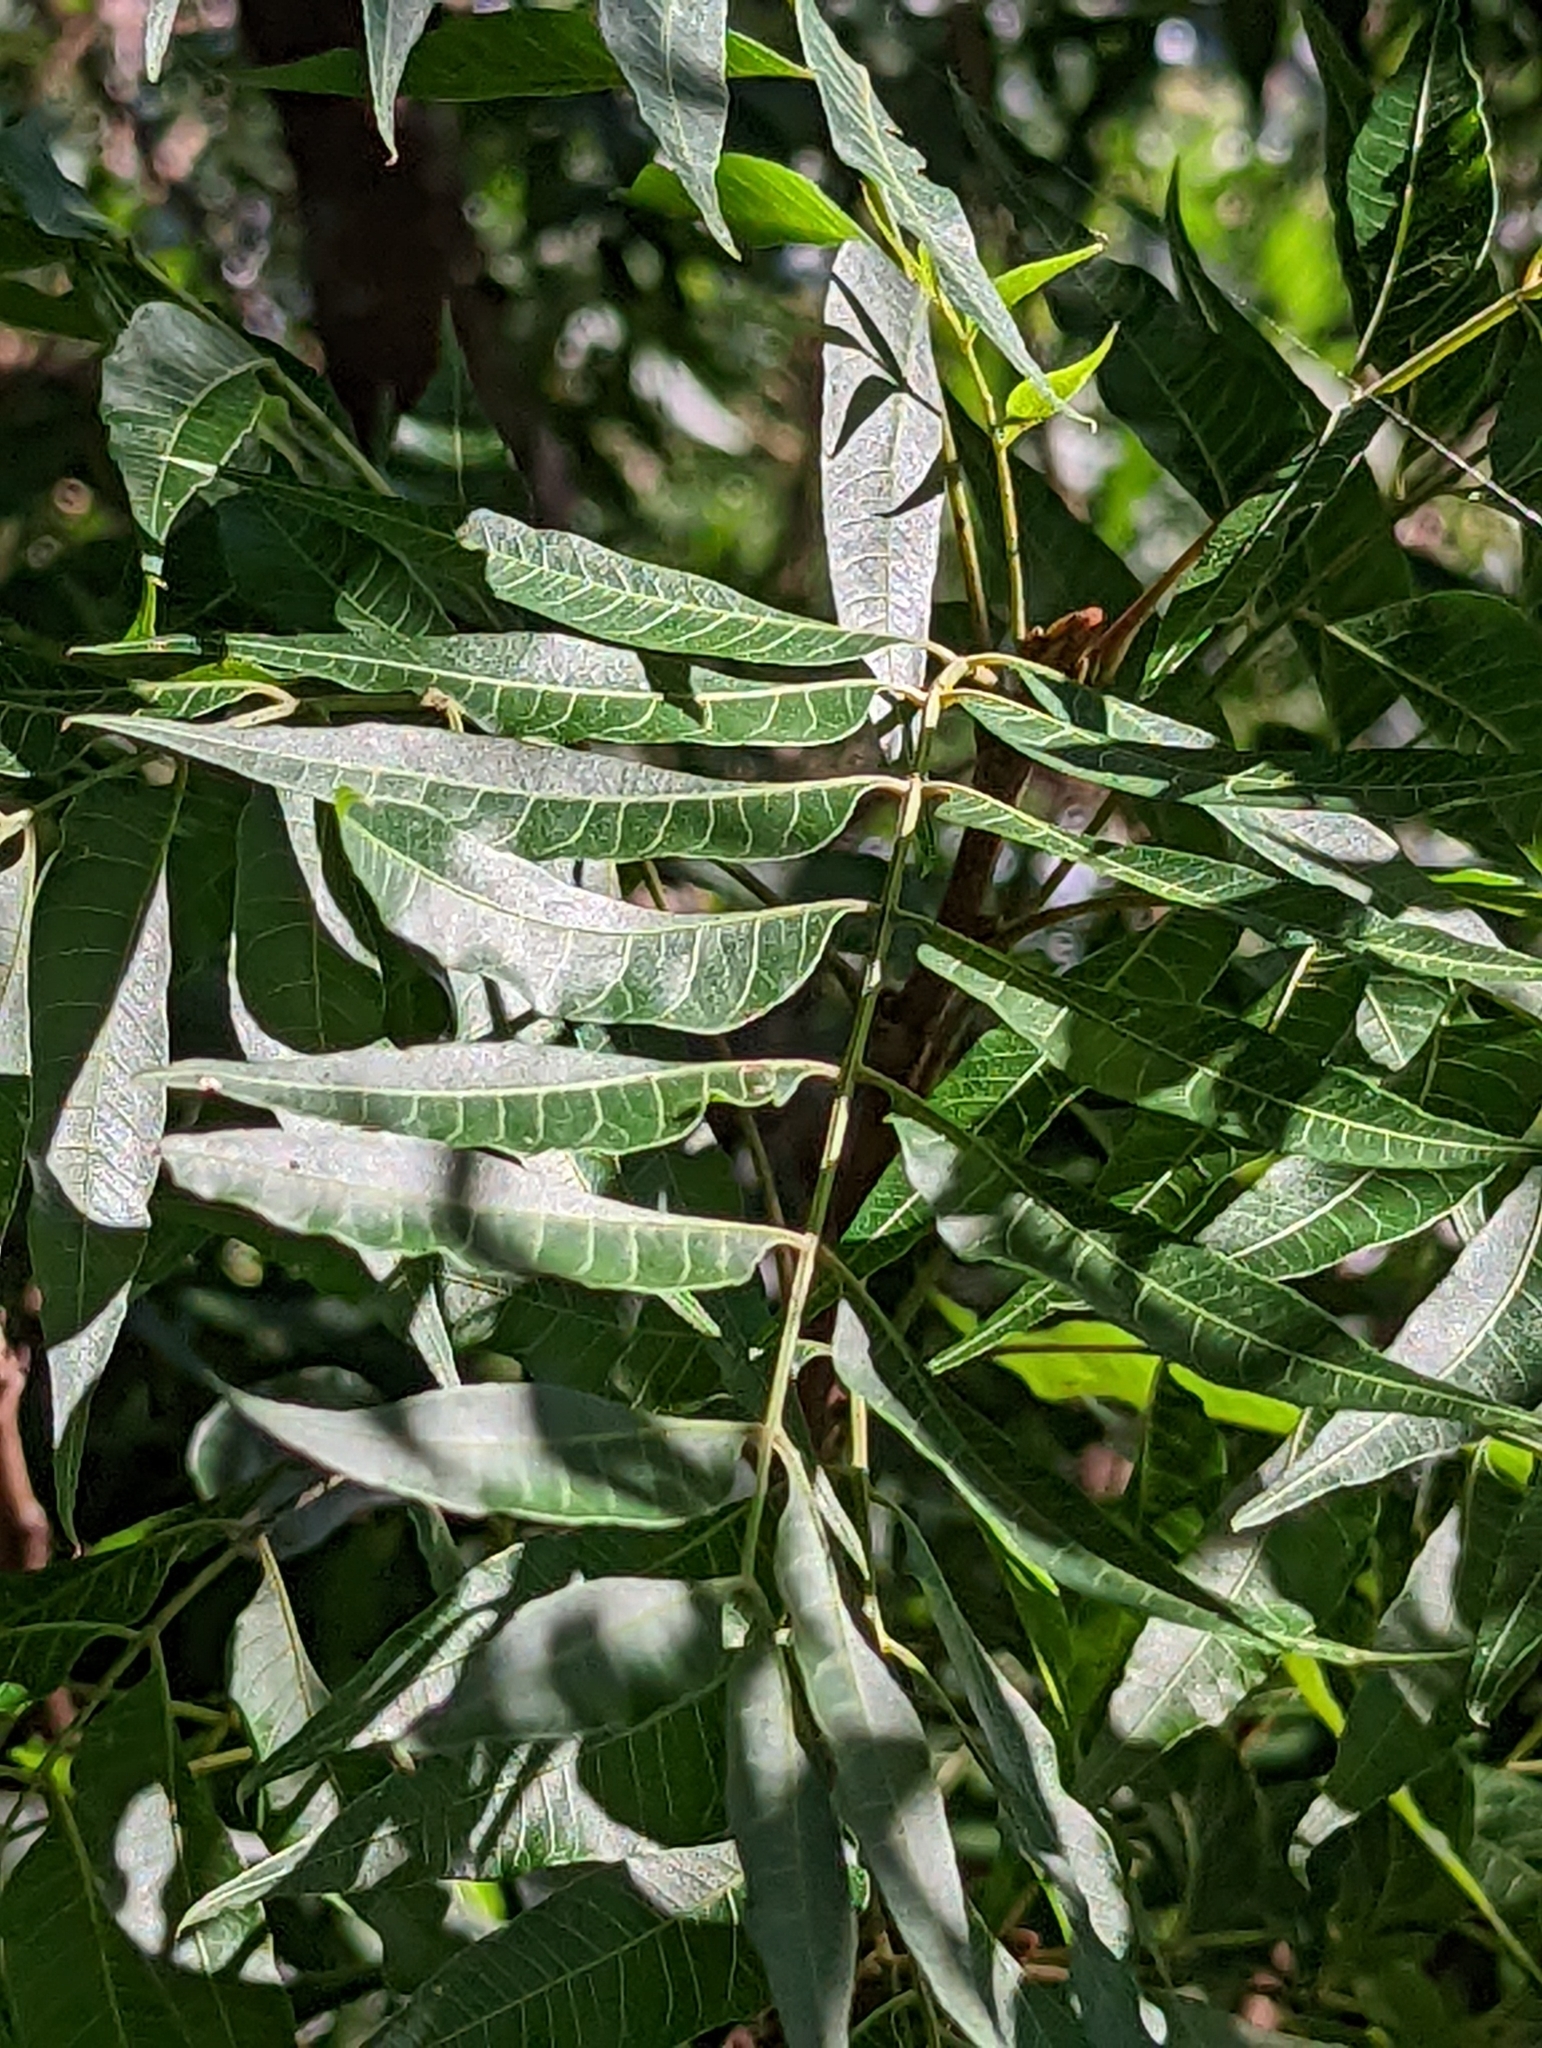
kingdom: Plantae
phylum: Tracheophyta
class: Magnoliopsida
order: Sapindales
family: Anacardiaceae
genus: Pistacia
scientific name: Pistacia chinensis
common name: Chinese pistache
